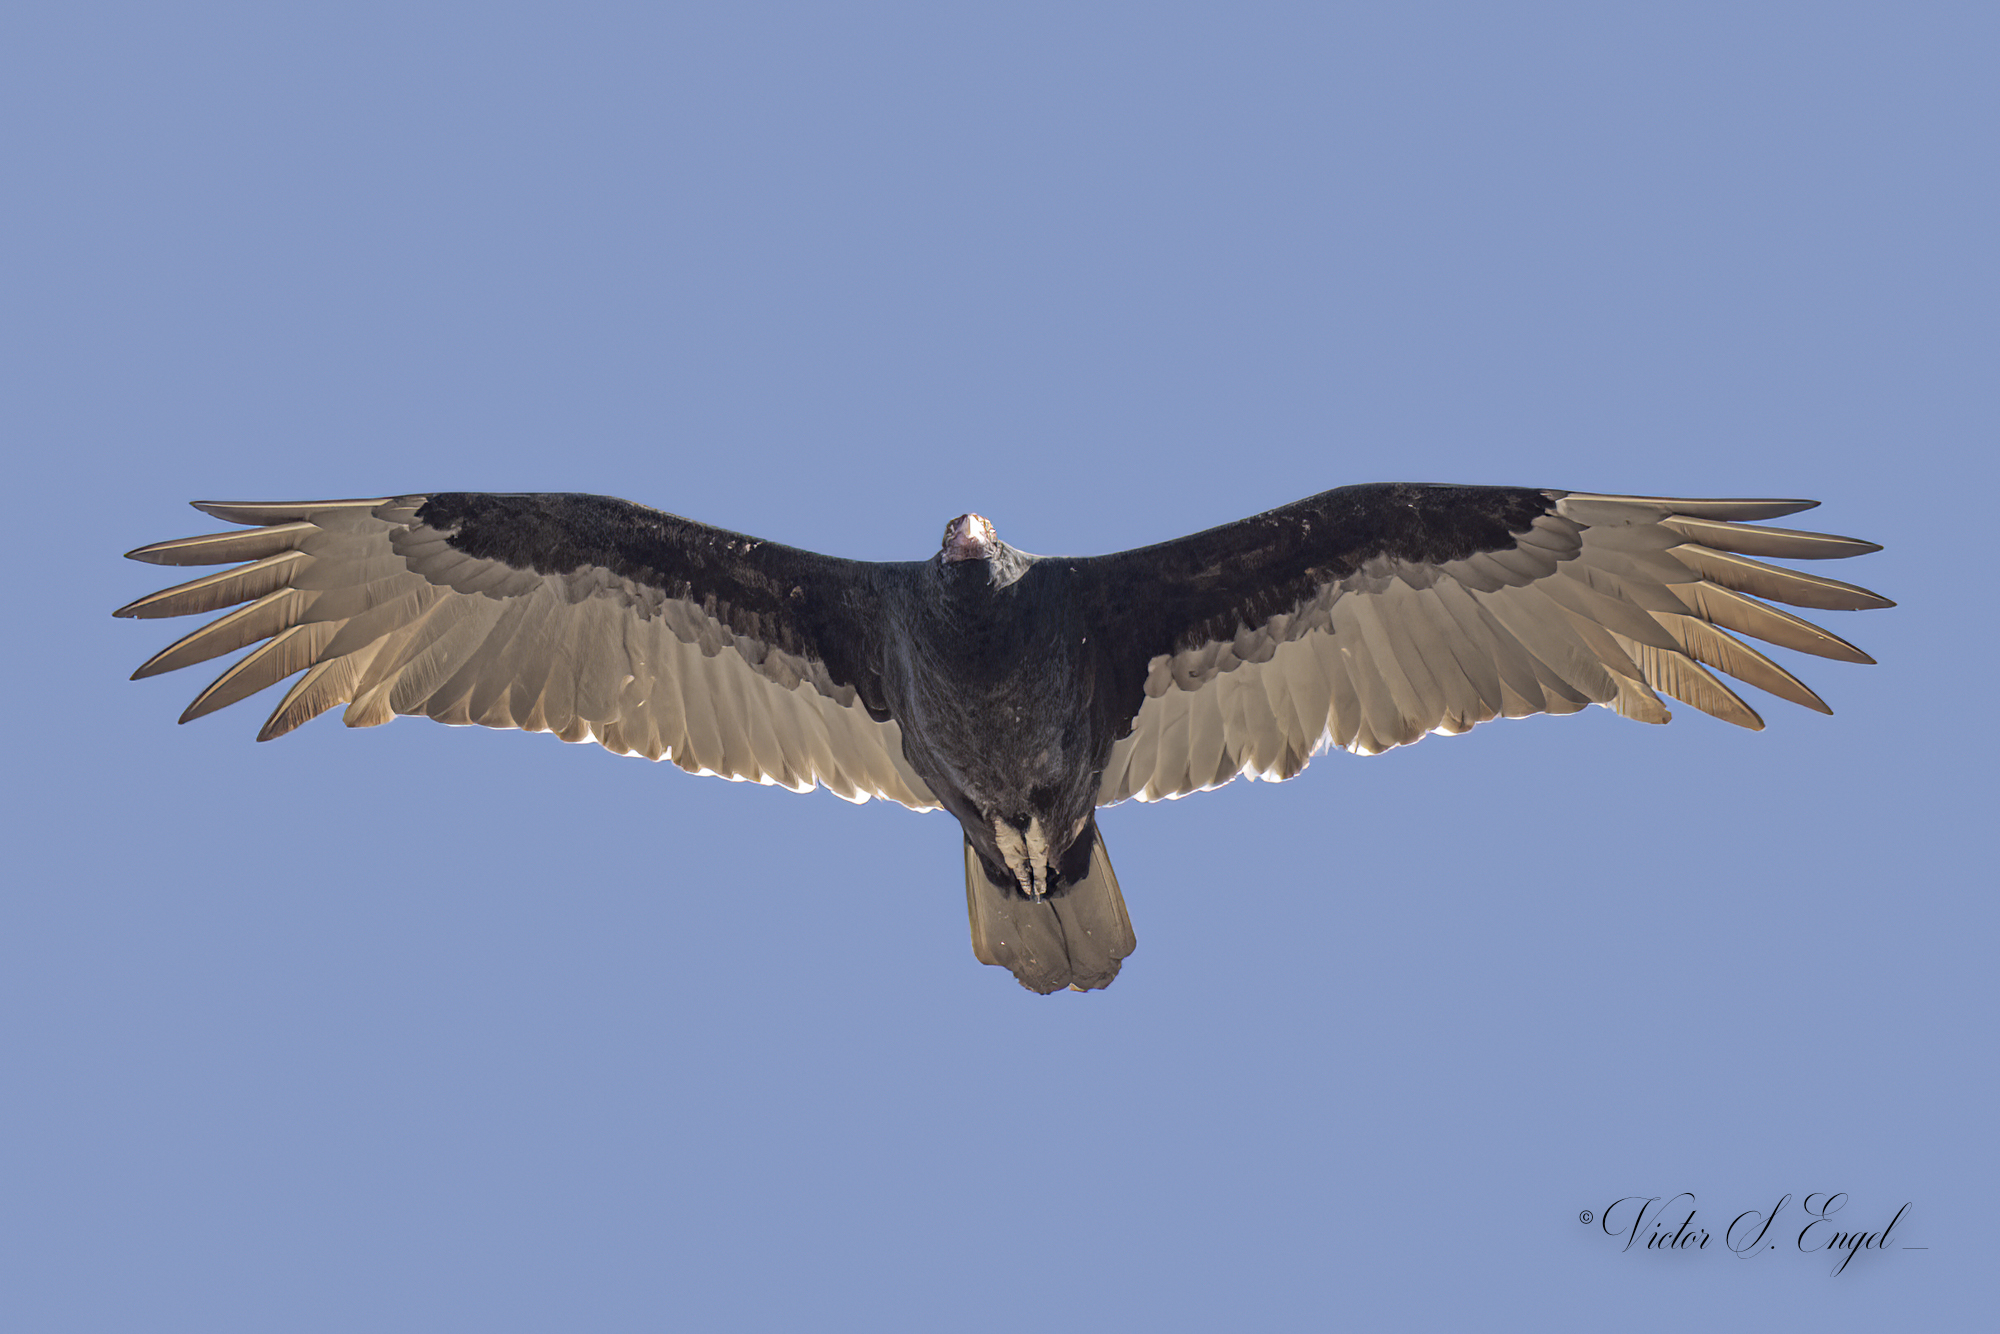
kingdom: Animalia
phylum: Chordata
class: Aves
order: Accipitriformes
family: Cathartidae
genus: Cathartes
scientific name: Cathartes aura
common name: Turkey vulture
